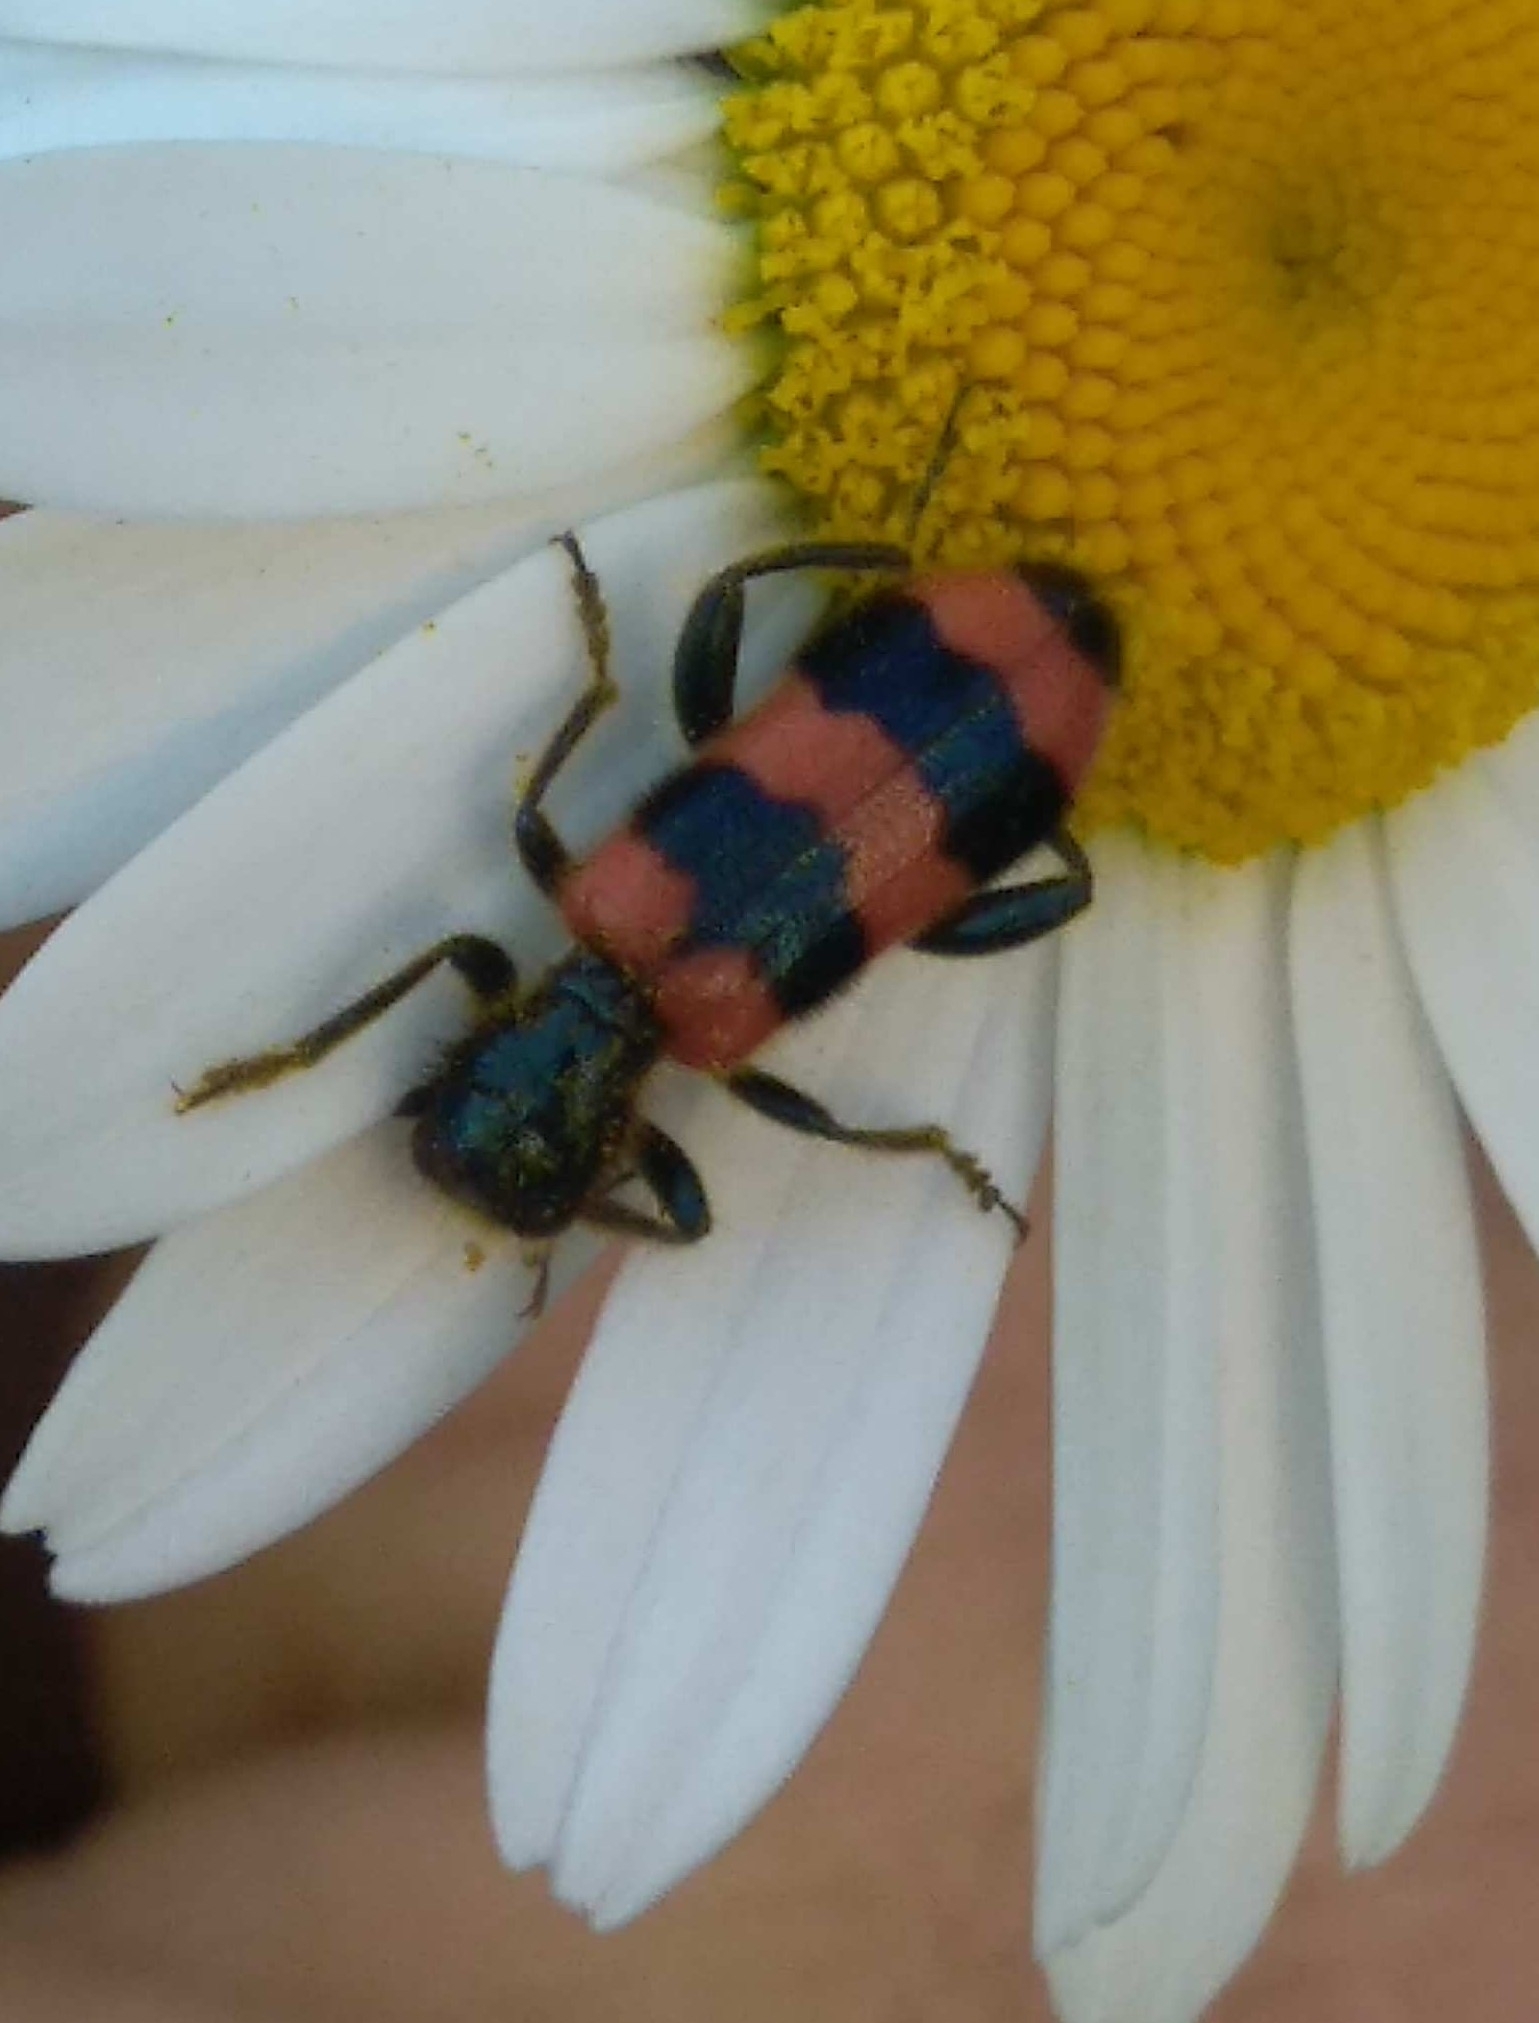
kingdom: Animalia
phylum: Arthropoda
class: Insecta
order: Coleoptera
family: Cleridae
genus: Trichodes
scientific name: Trichodes apiarius
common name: Bee-eating beetle
